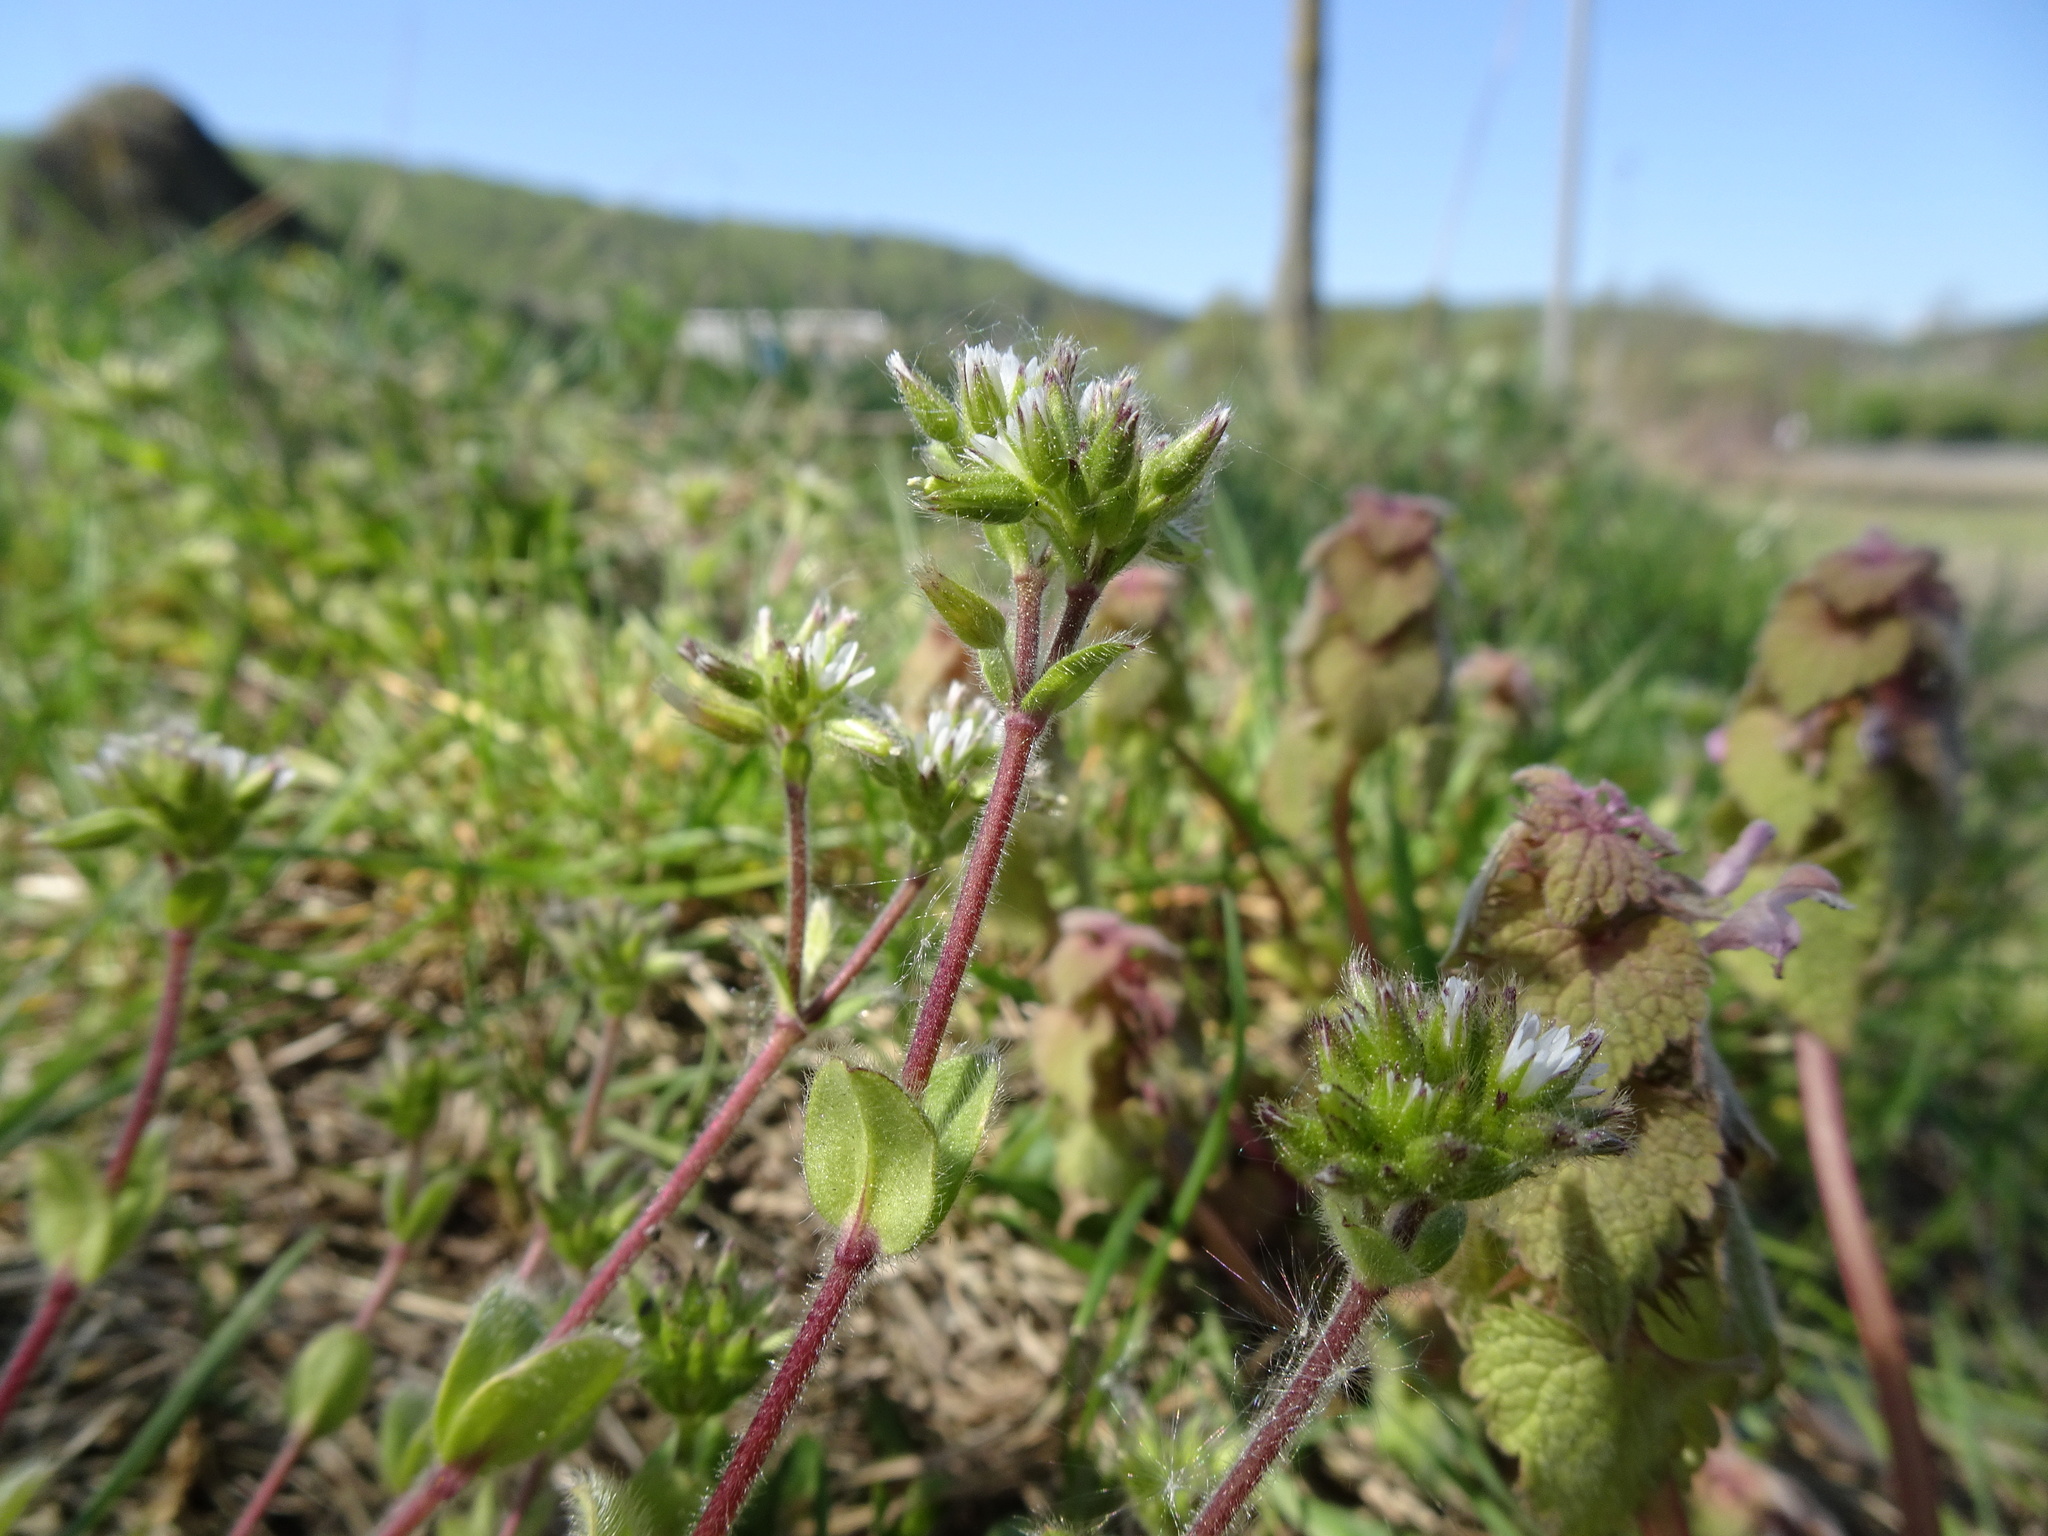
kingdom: Plantae
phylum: Tracheophyta
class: Magnoliopsida
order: Caryophyllales
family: Caryophyllaceae
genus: Cerastium
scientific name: Cerastium glomeratum
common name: Sticky chickweed
